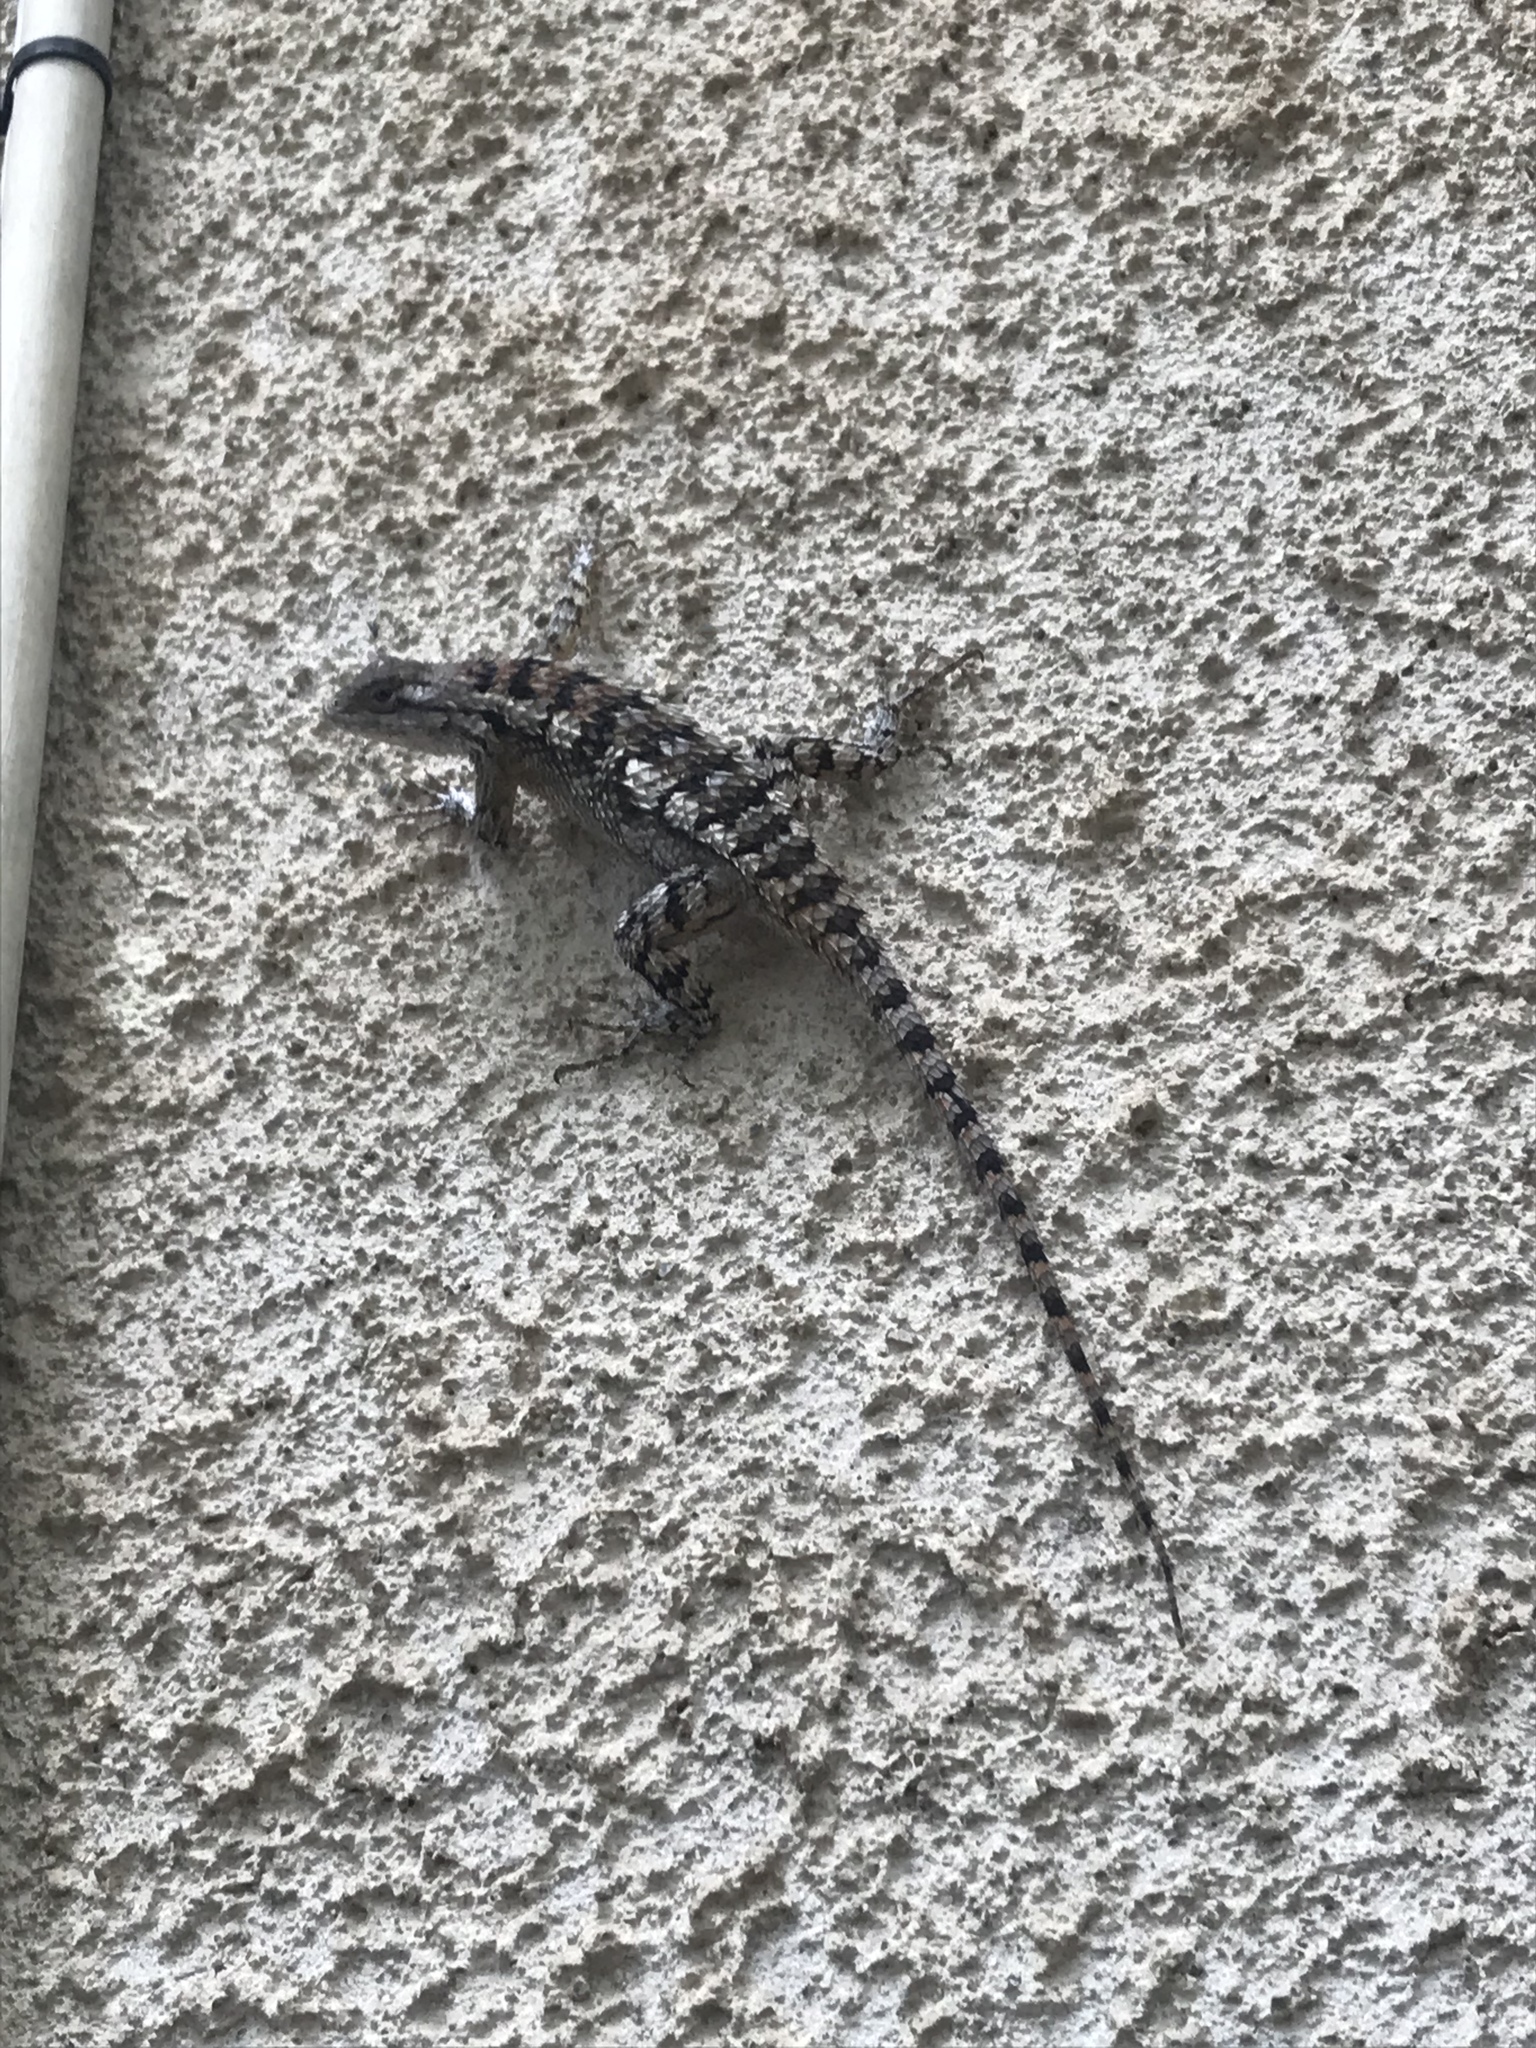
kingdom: Animalia
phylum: Chordata
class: Squamata
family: Phrynosomatidae
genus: Sceloporus
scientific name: Sceloporus olivaceus
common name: Texas spiny lizard
